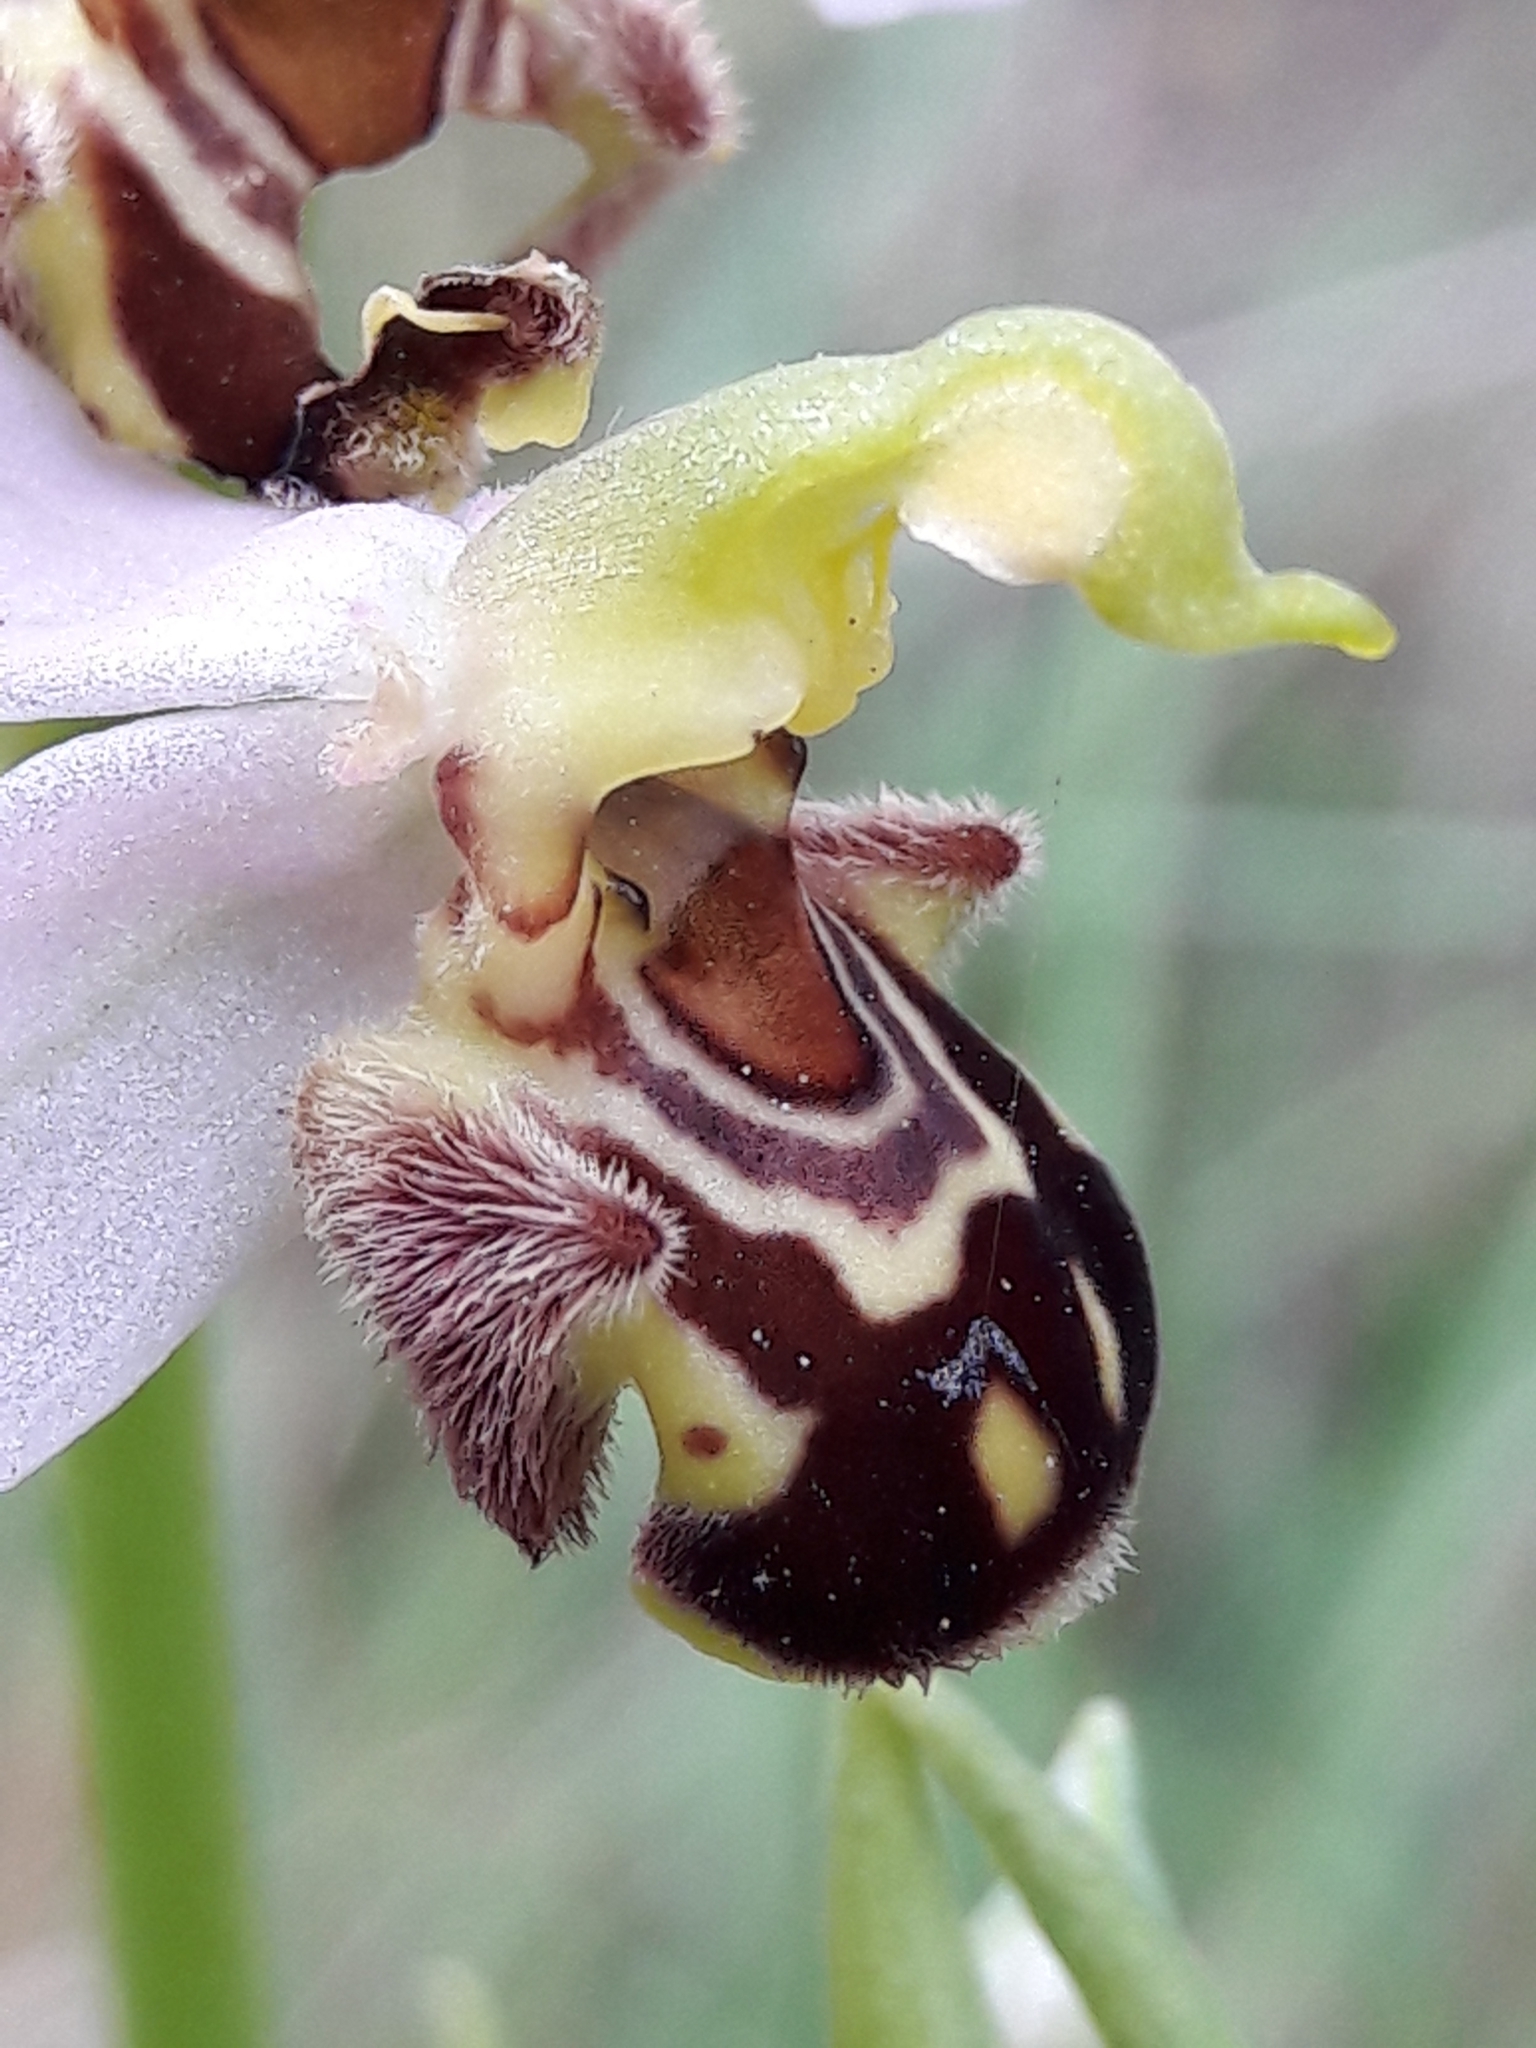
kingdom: Plantae
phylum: Tracheophyta
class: Liliopsida
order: Asparagales
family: Orchidaceae
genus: Ophrys
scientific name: Ophrys apifera
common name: Bee orchid
